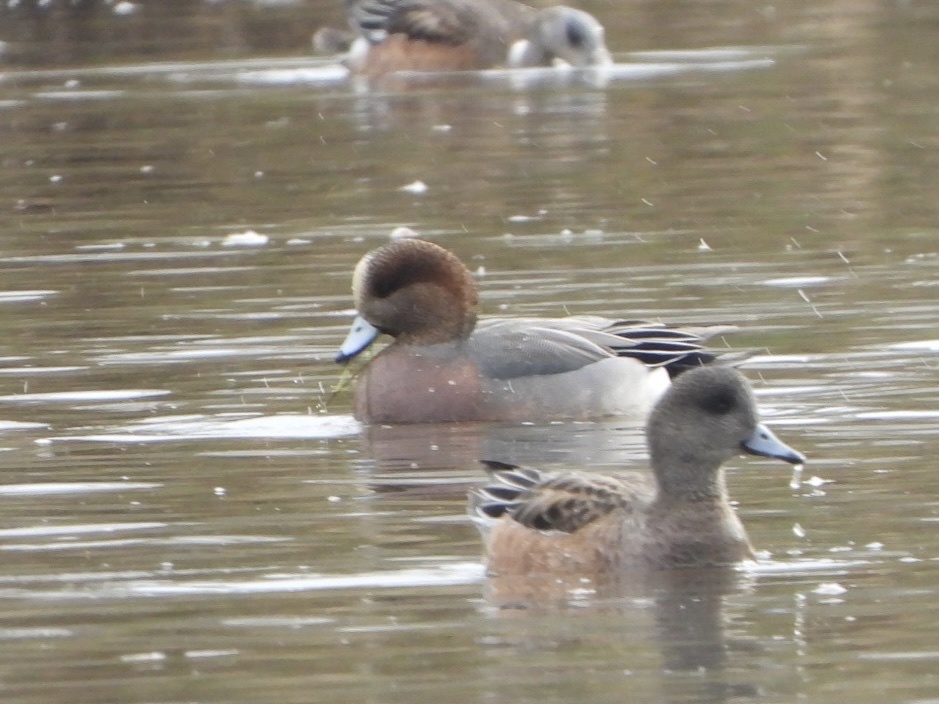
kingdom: Animalia
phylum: Chordata
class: Aves
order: Anseriformes
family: Anatidae
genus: Mareca
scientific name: Mareca
